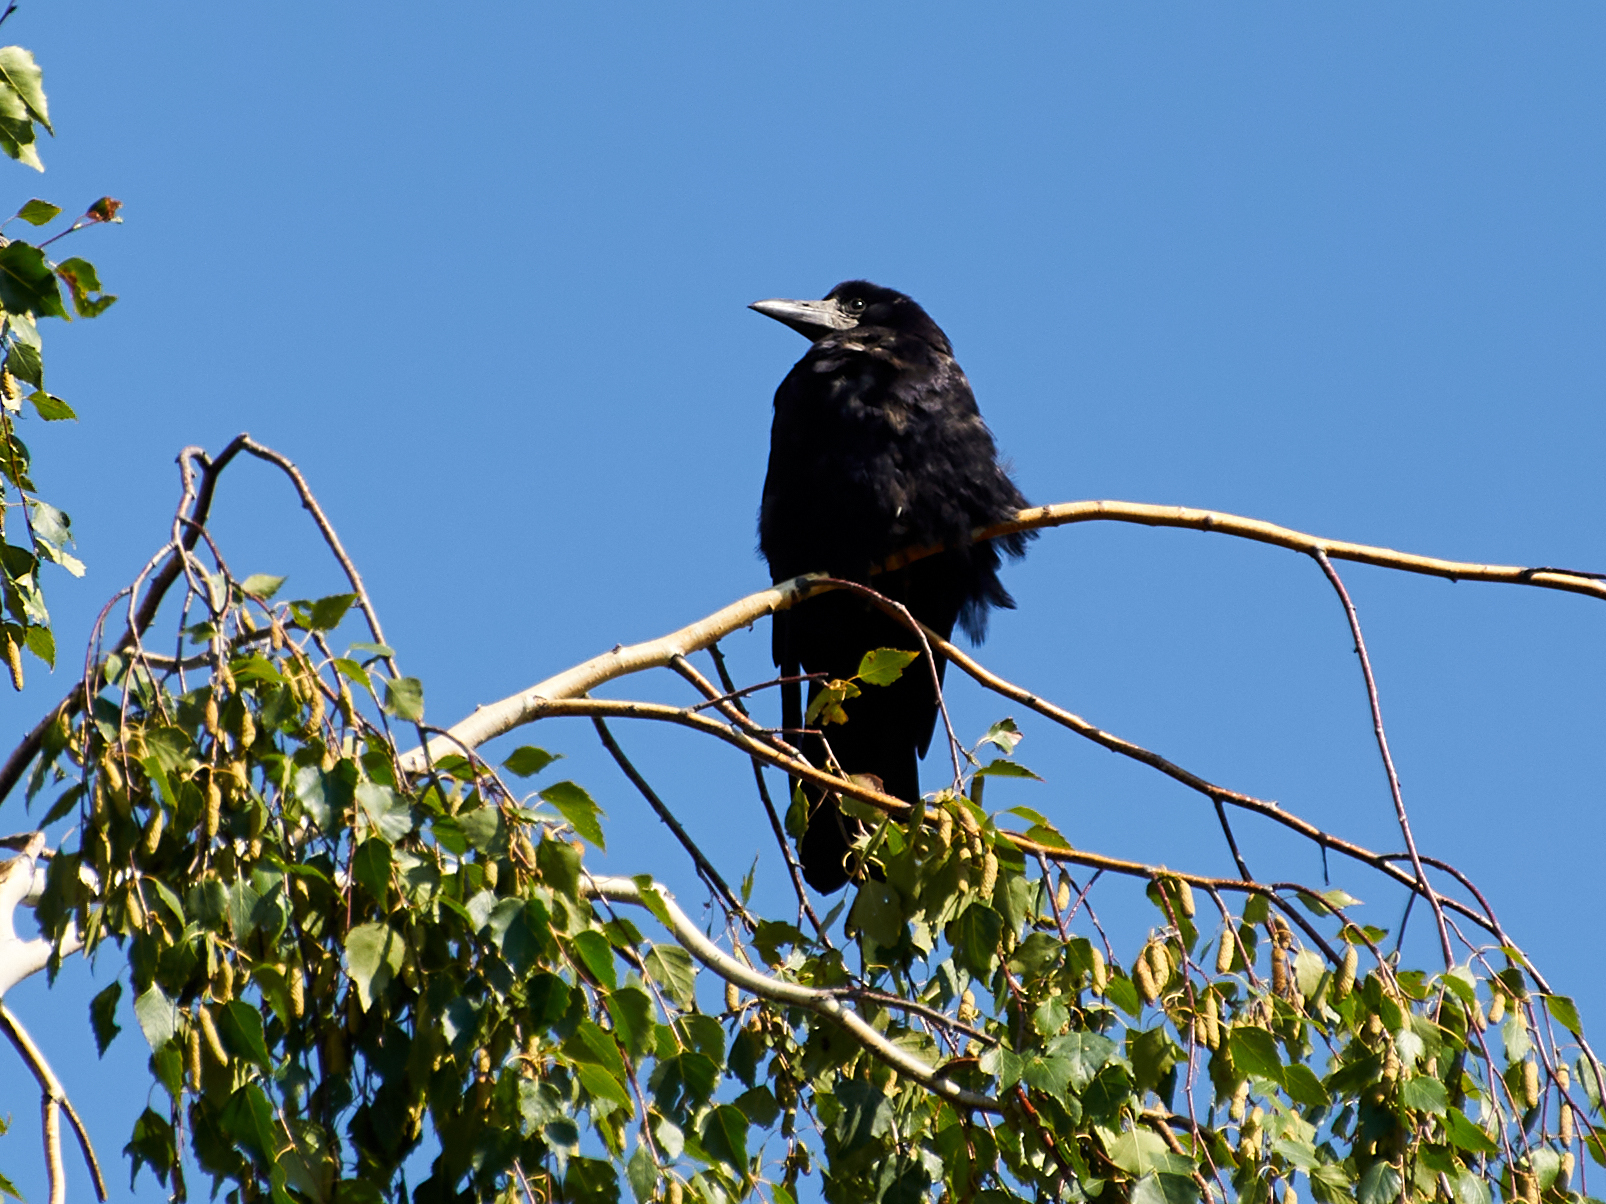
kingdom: Animalia
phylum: Chordata
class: Aves
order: Passeriformes
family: Corvidae
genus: Corvus
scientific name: Corvus frugilegus
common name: Rook
